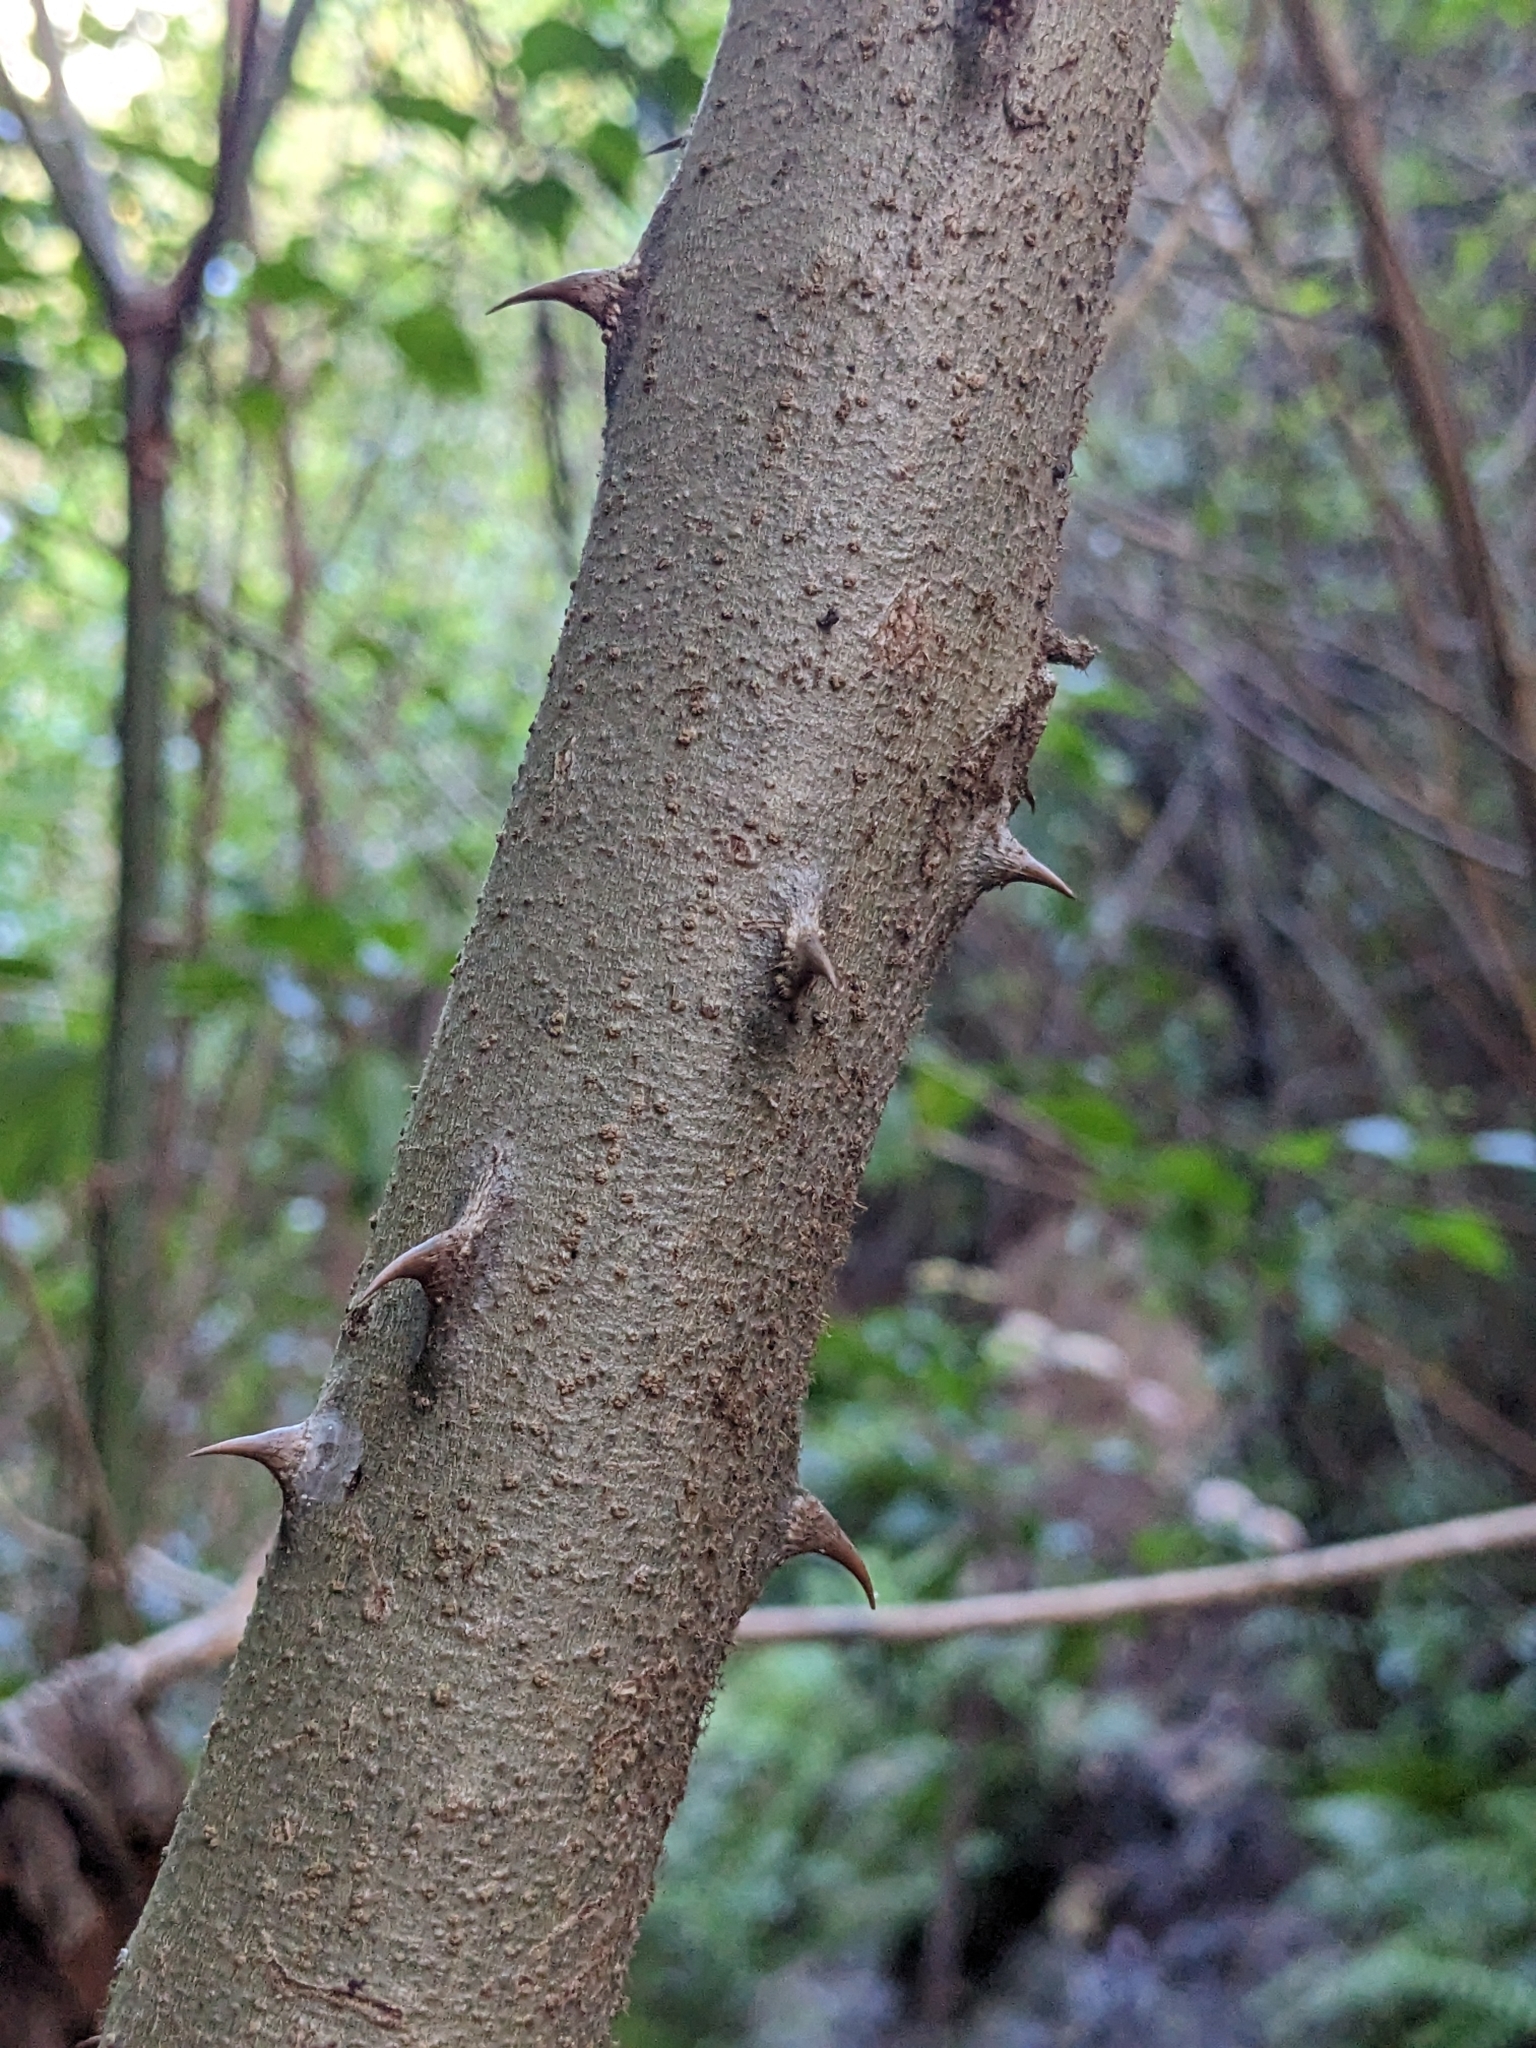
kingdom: Plantae
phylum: Tracheophyta
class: Magnoliopsida
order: Solanales
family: Solanaceae
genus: Solanum
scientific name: Solanum chrysotrichum
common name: Nightshade
